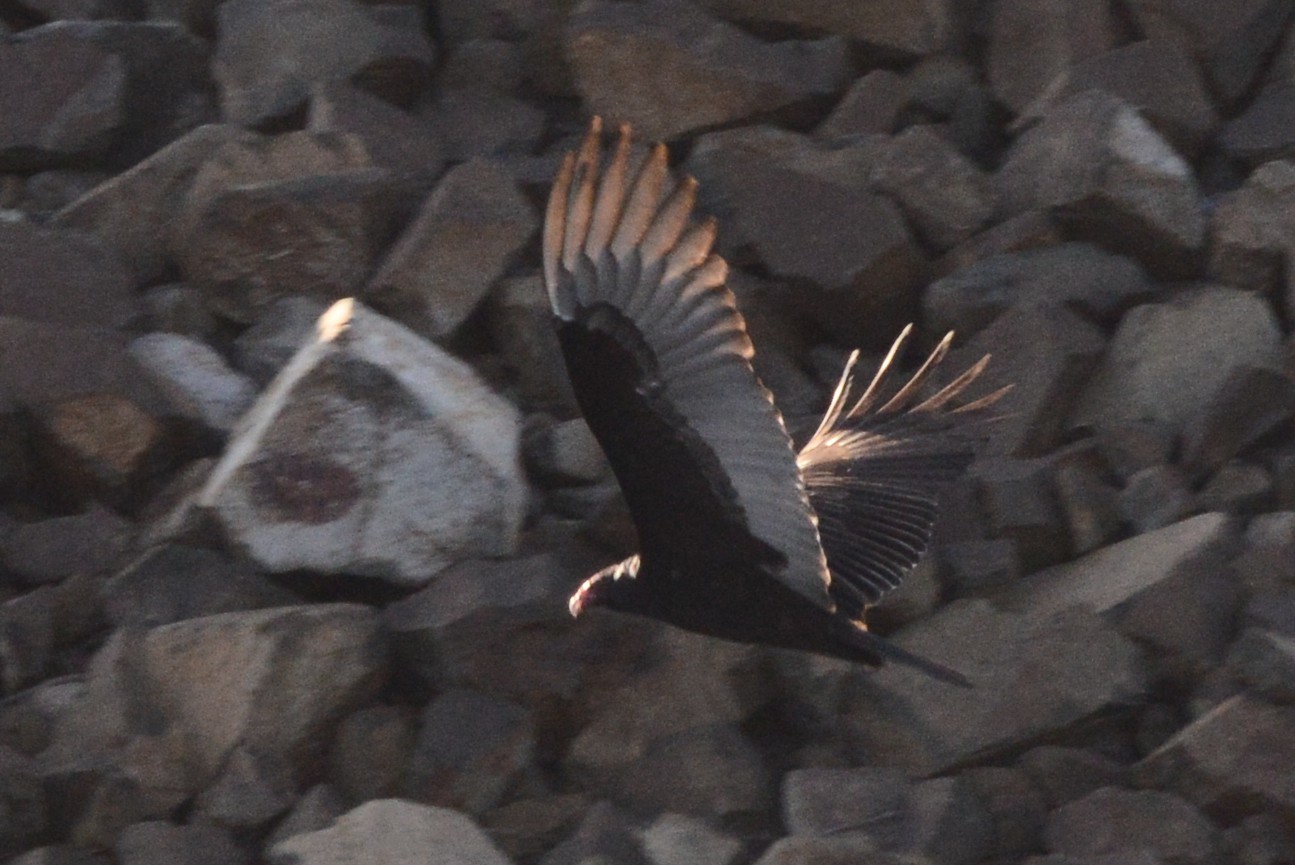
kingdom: Animalia
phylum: Chordata
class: Aves
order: Accipitriformes
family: Cathartidae
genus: Cathartes
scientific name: Cathartes aura
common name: Turkey vulture
